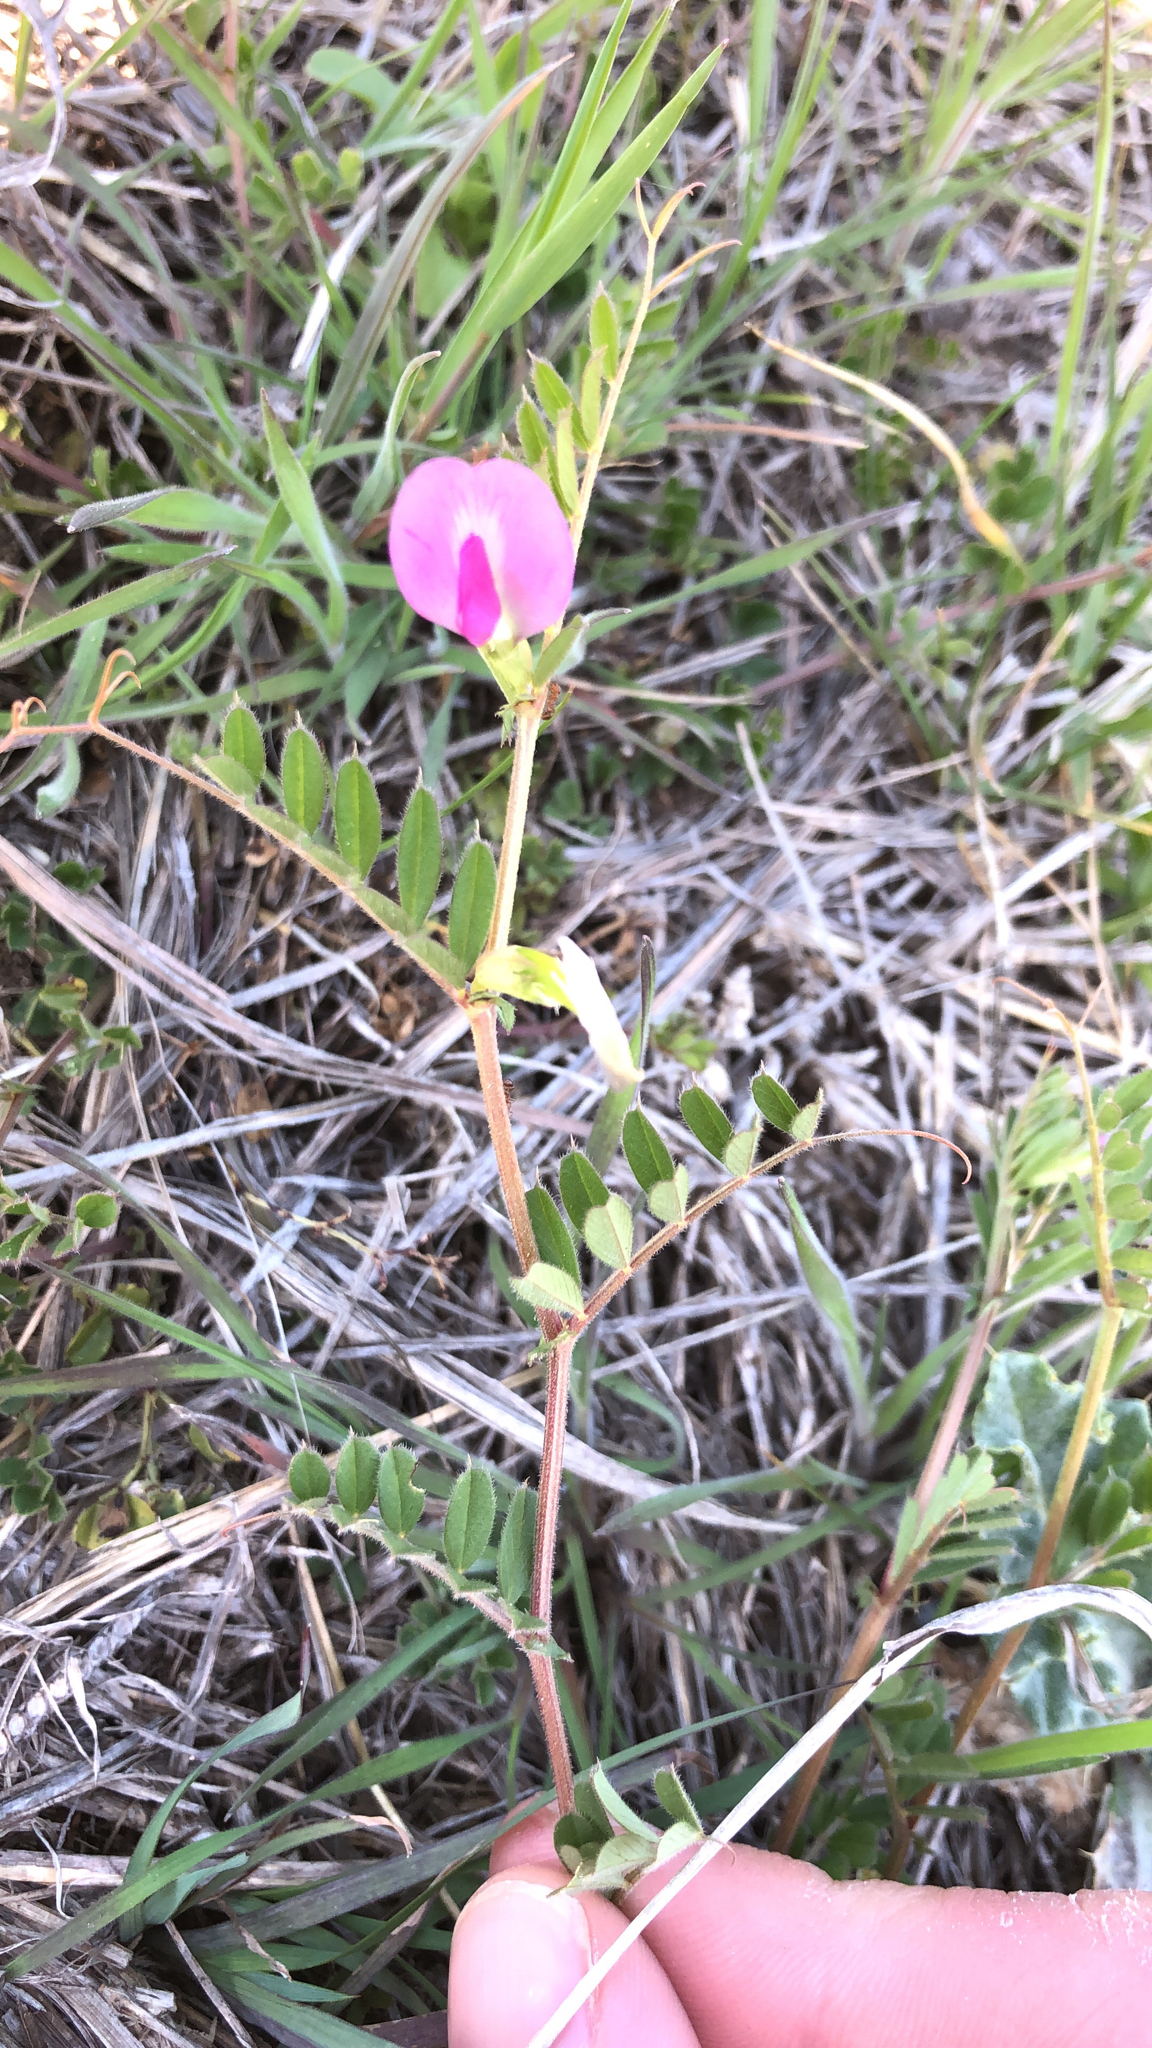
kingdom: Plantae
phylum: Tracheophyta
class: Magnoliopsida
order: Fabales
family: Fabaceae
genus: Vicia
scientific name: Vicia sativa
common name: Garden vetch
